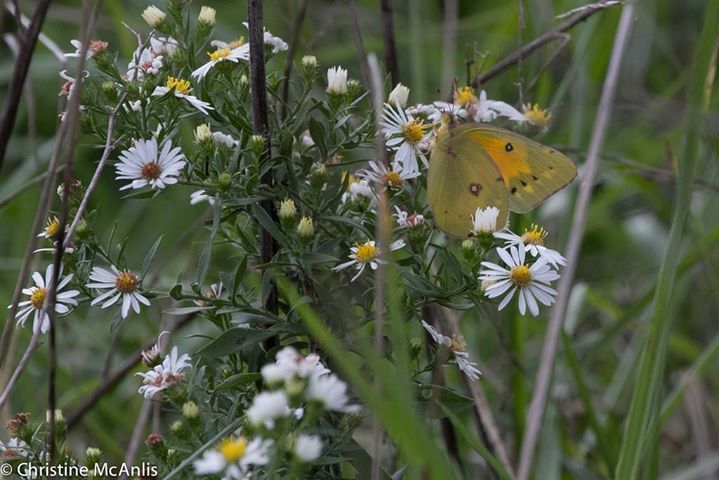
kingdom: Animalia
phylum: Arthropoda
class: Insecta
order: Lepidoptera
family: Pieridae
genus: Colias
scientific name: Colias eurytheme
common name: Alfalfa butterfly
